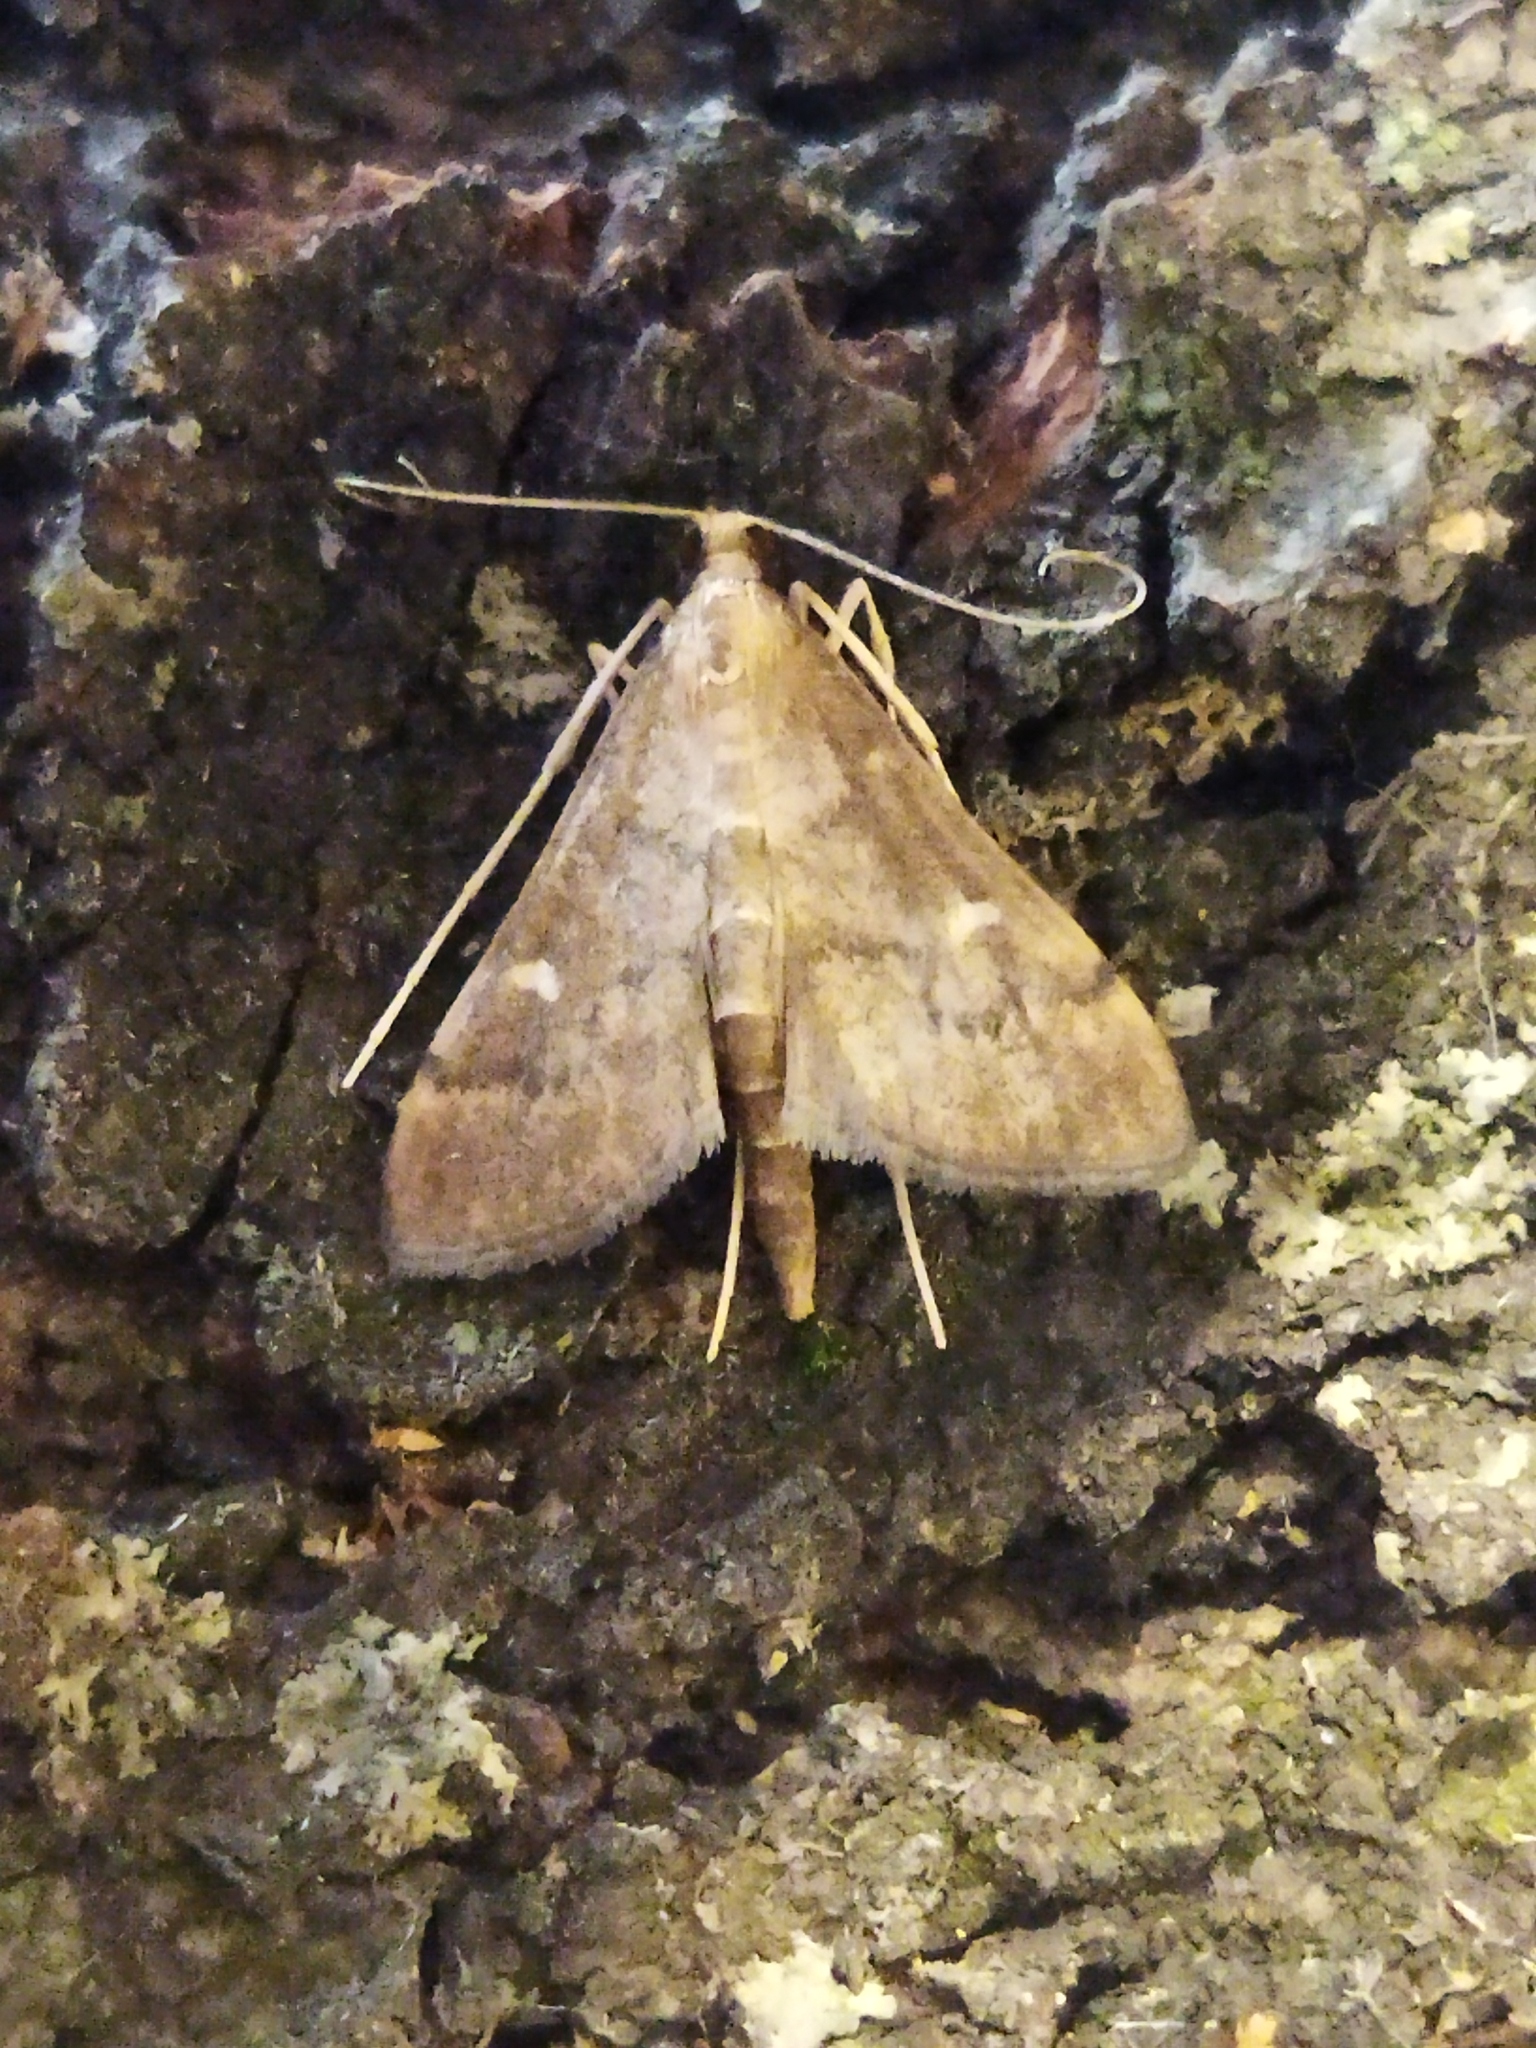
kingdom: Animalia
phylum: Arthropoda
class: Insecta
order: Lepidoptera
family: Crambidae
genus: Stenia
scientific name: Stenia Dolicharthria punctalis
